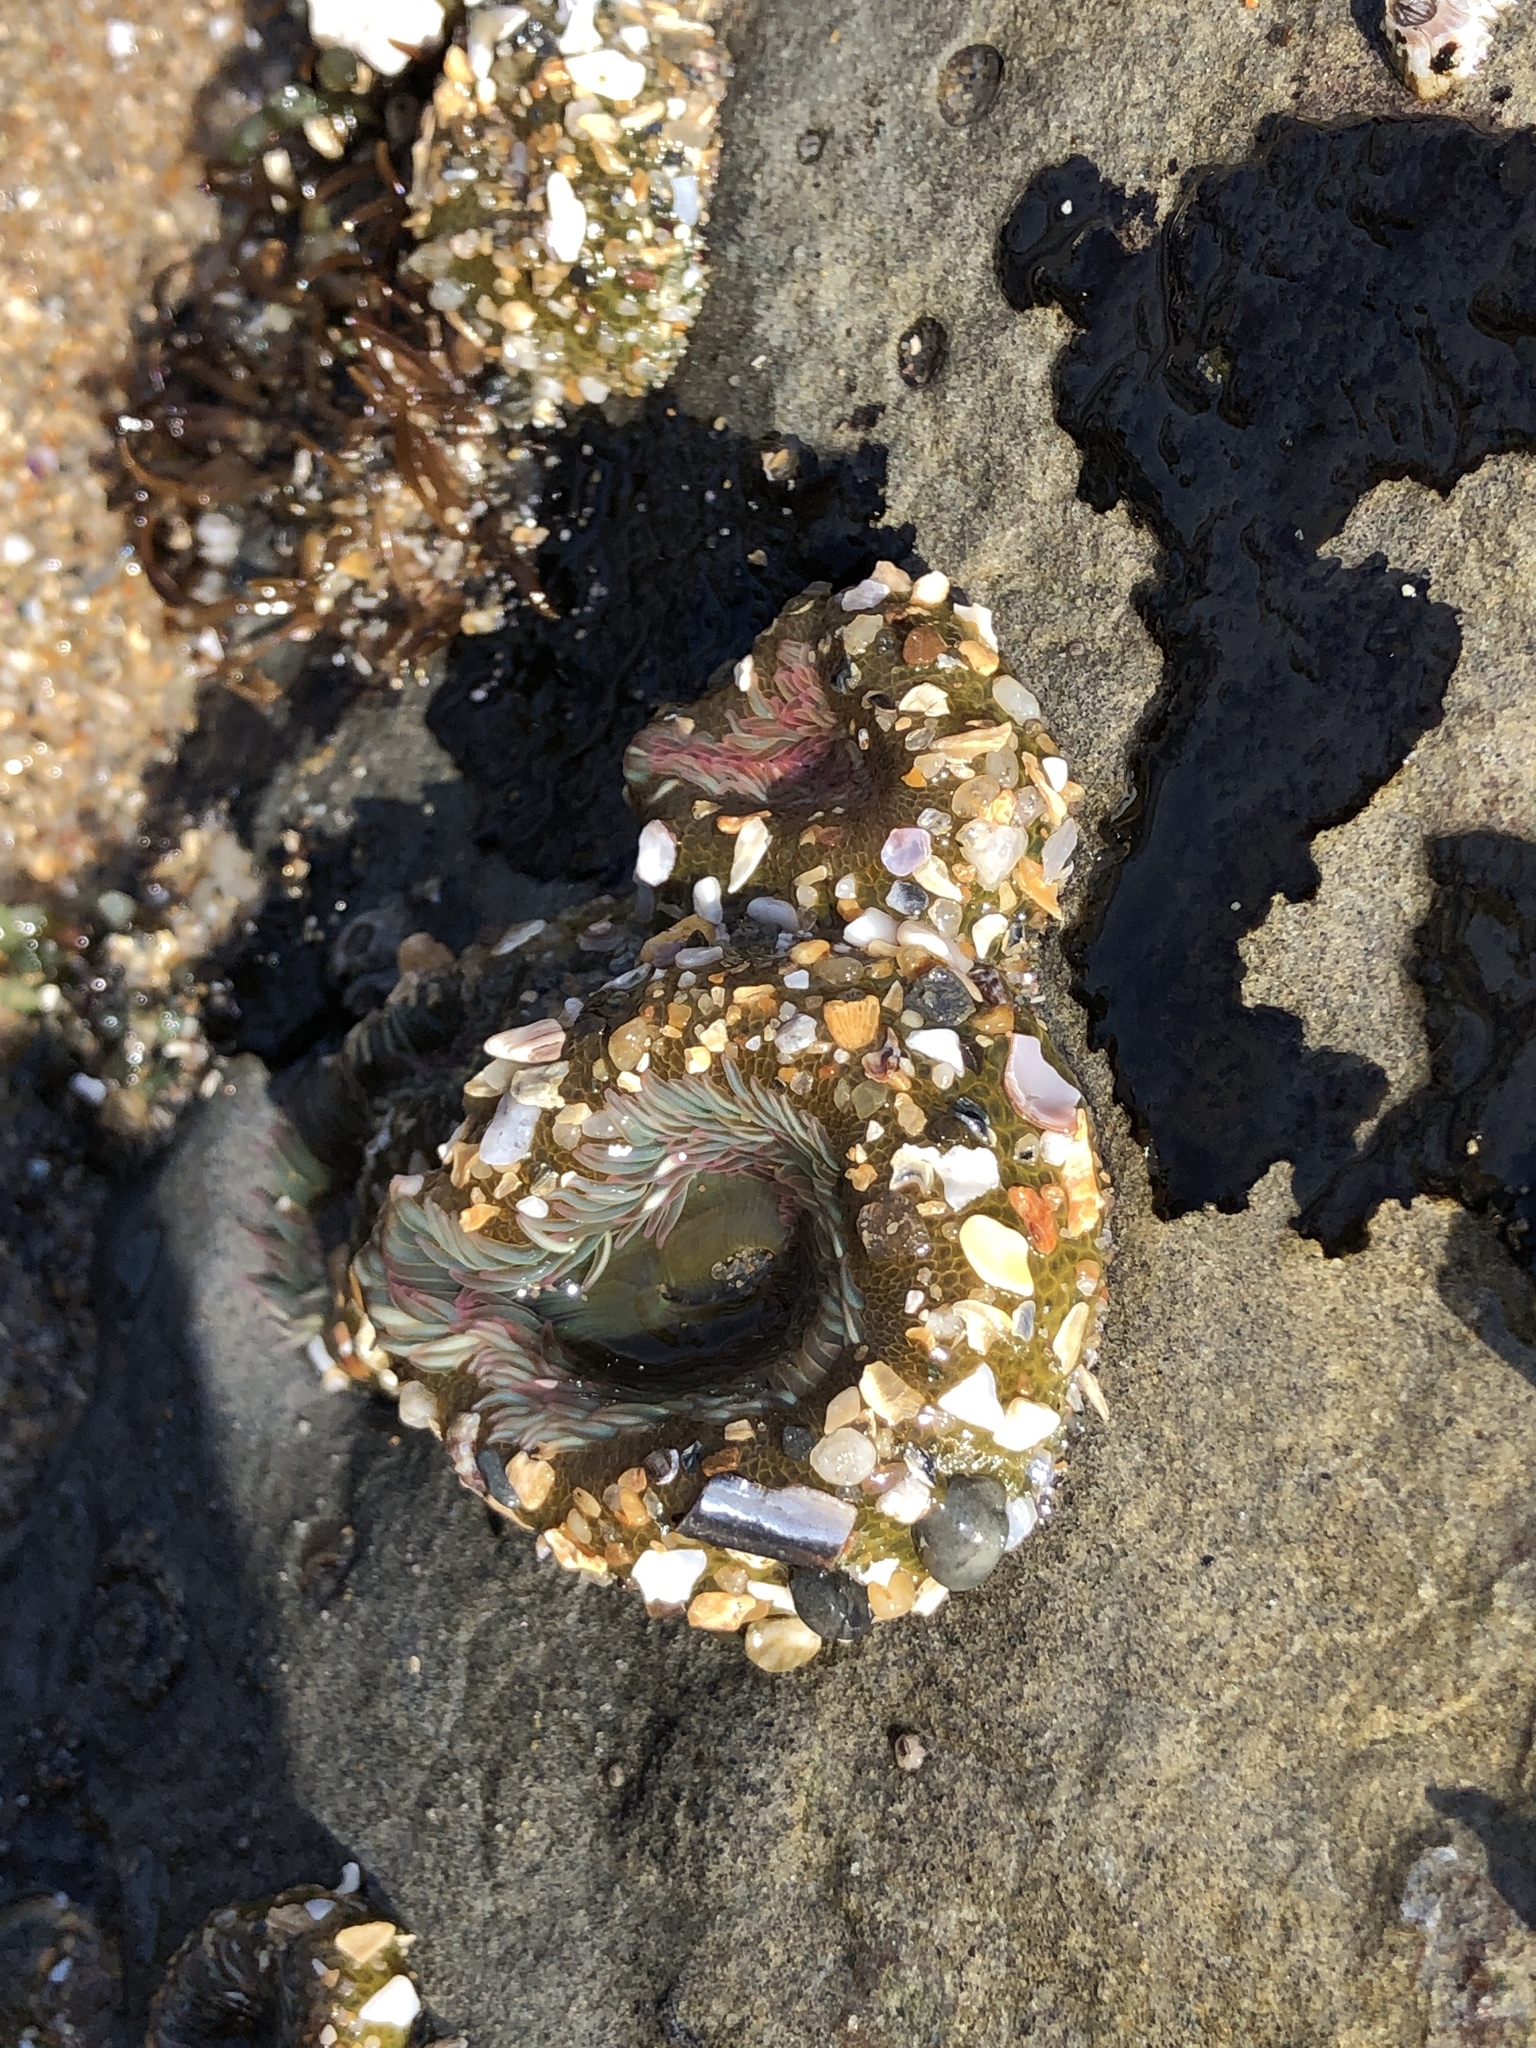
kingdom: Animalia
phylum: Cnidaria
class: Anthozoa
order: Actiniaria
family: Actiniidae
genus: Anthopleura
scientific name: Anthopleura elegantissima
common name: Clonal anemone
